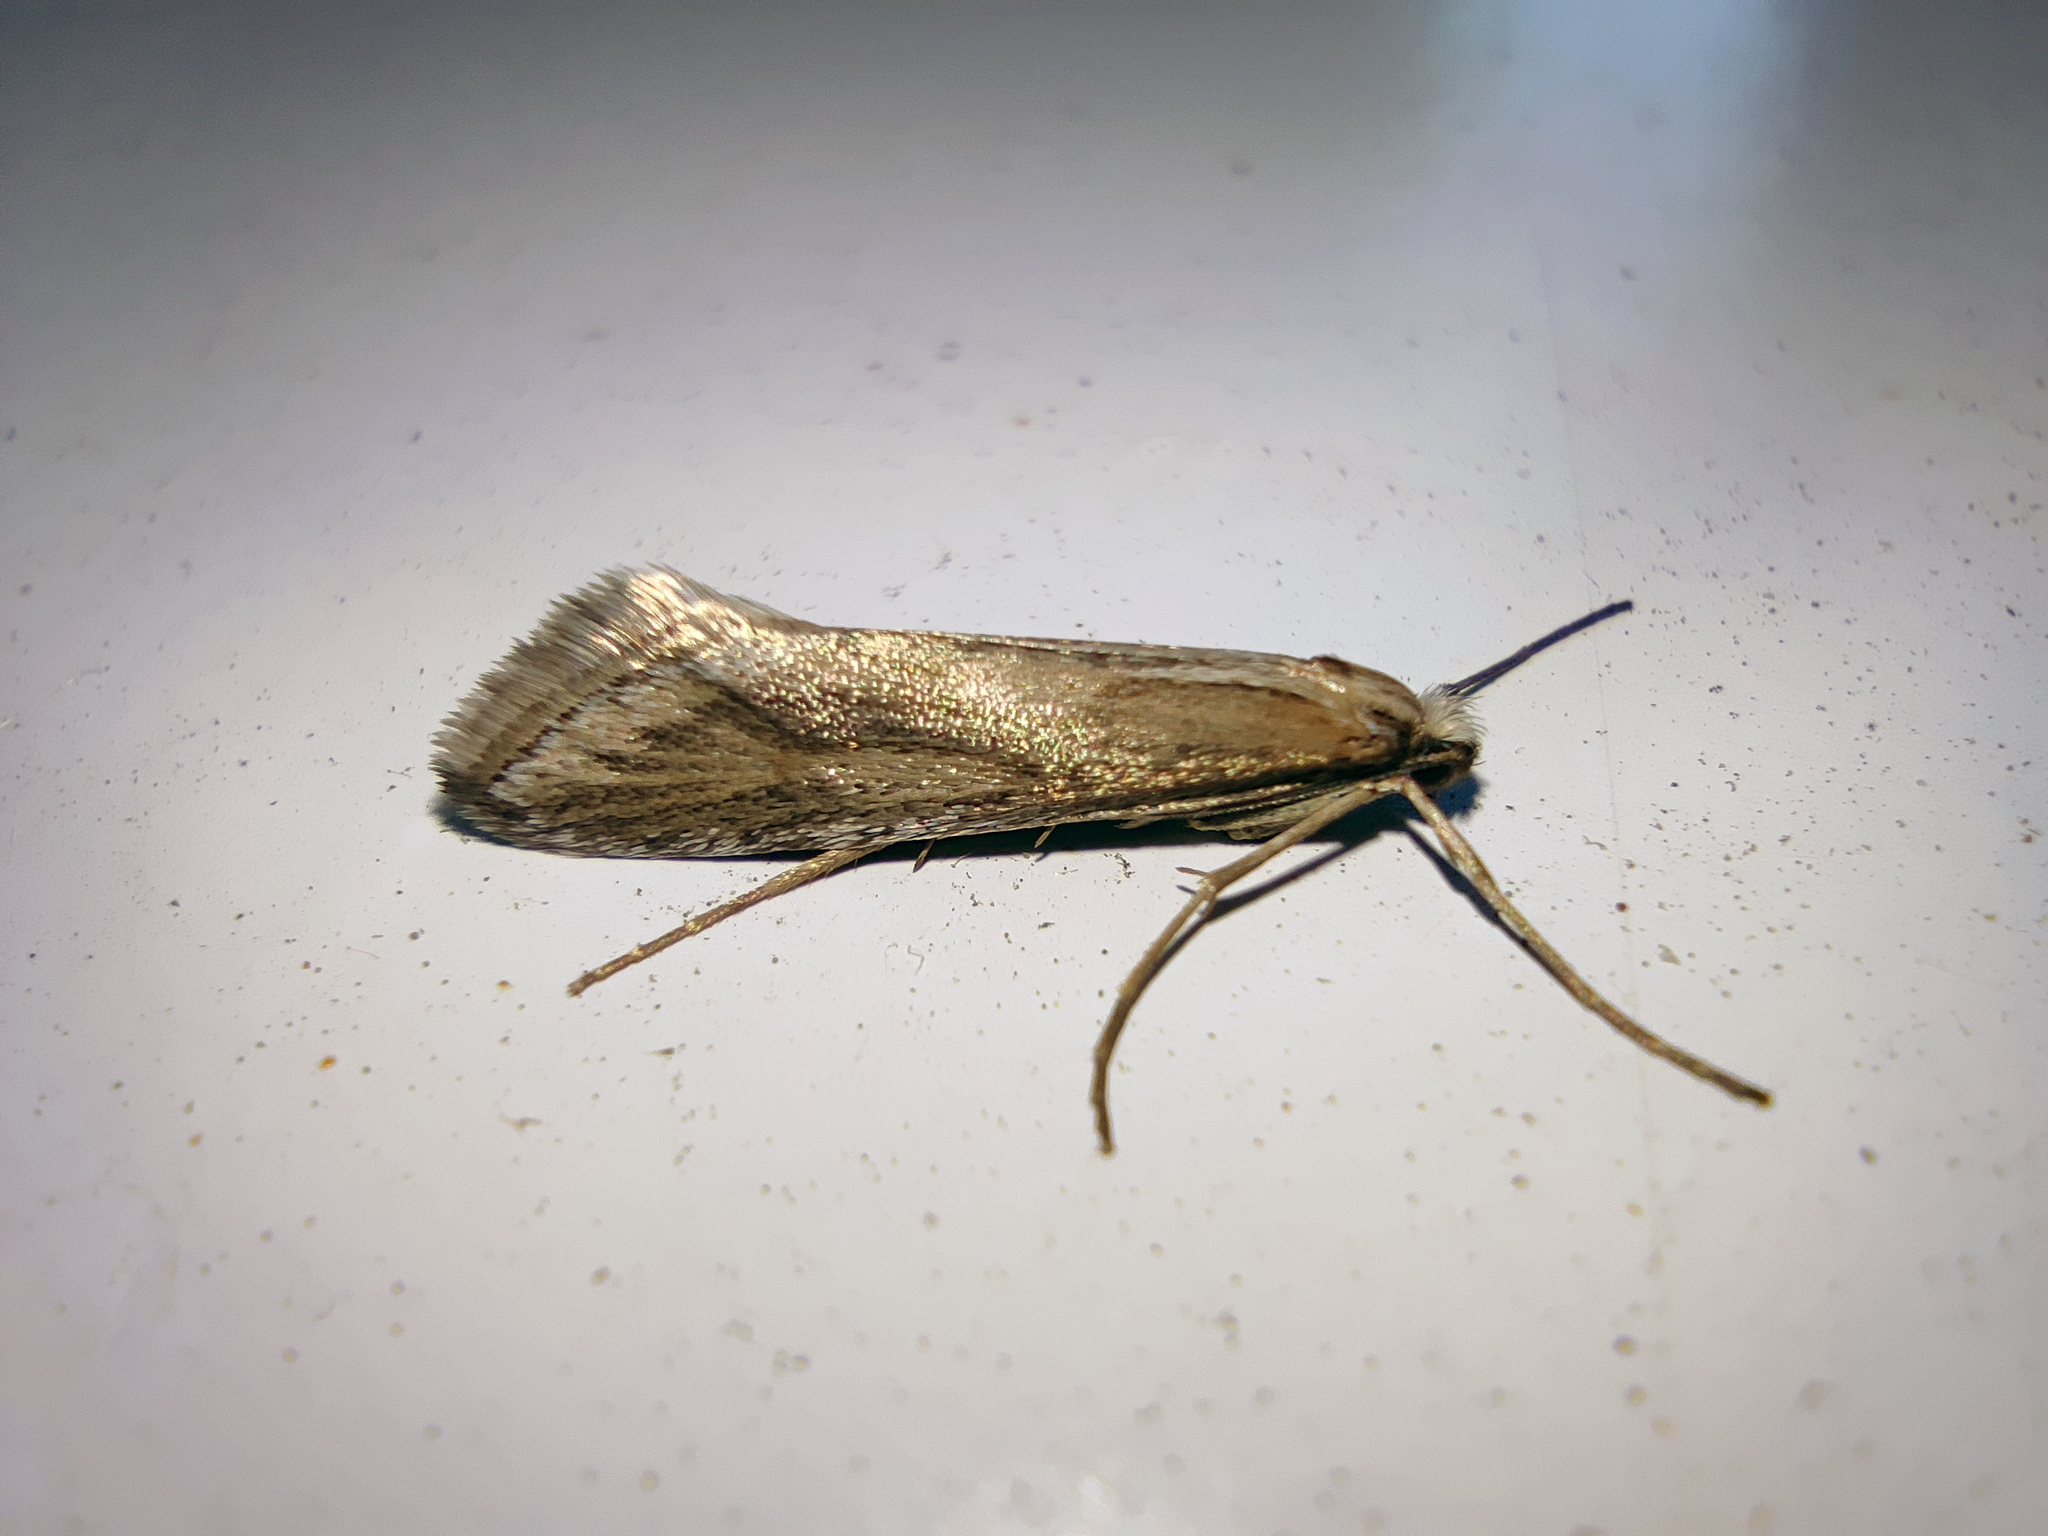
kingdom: Animalia
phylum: Arthropoda
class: Insecta
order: Lepidoptera
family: Eriocottidae
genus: Deuterotinea
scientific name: Deuterotinea casanella
